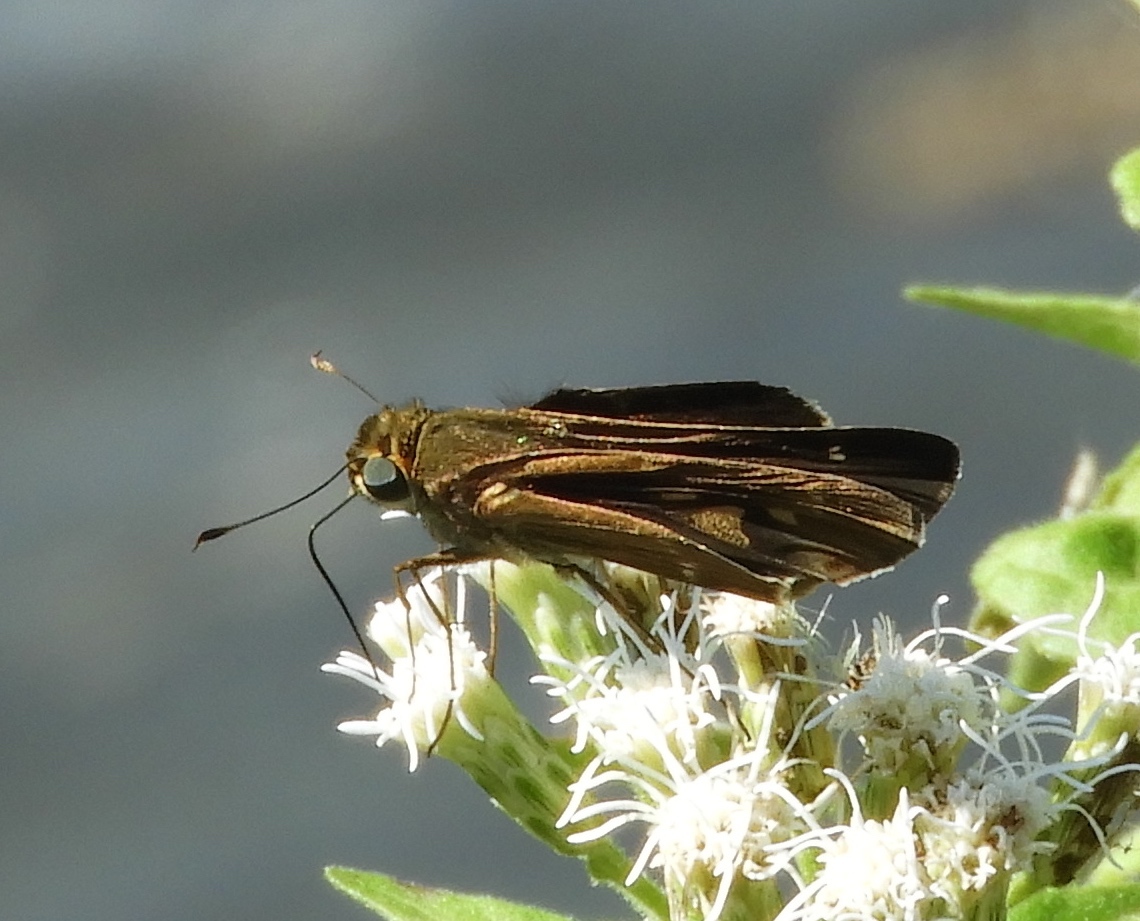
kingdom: Animalia
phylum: Arthropoda
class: Insecta
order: Lepidoptera
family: Hesperiidae
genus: Turesis
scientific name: Turesis lucas
